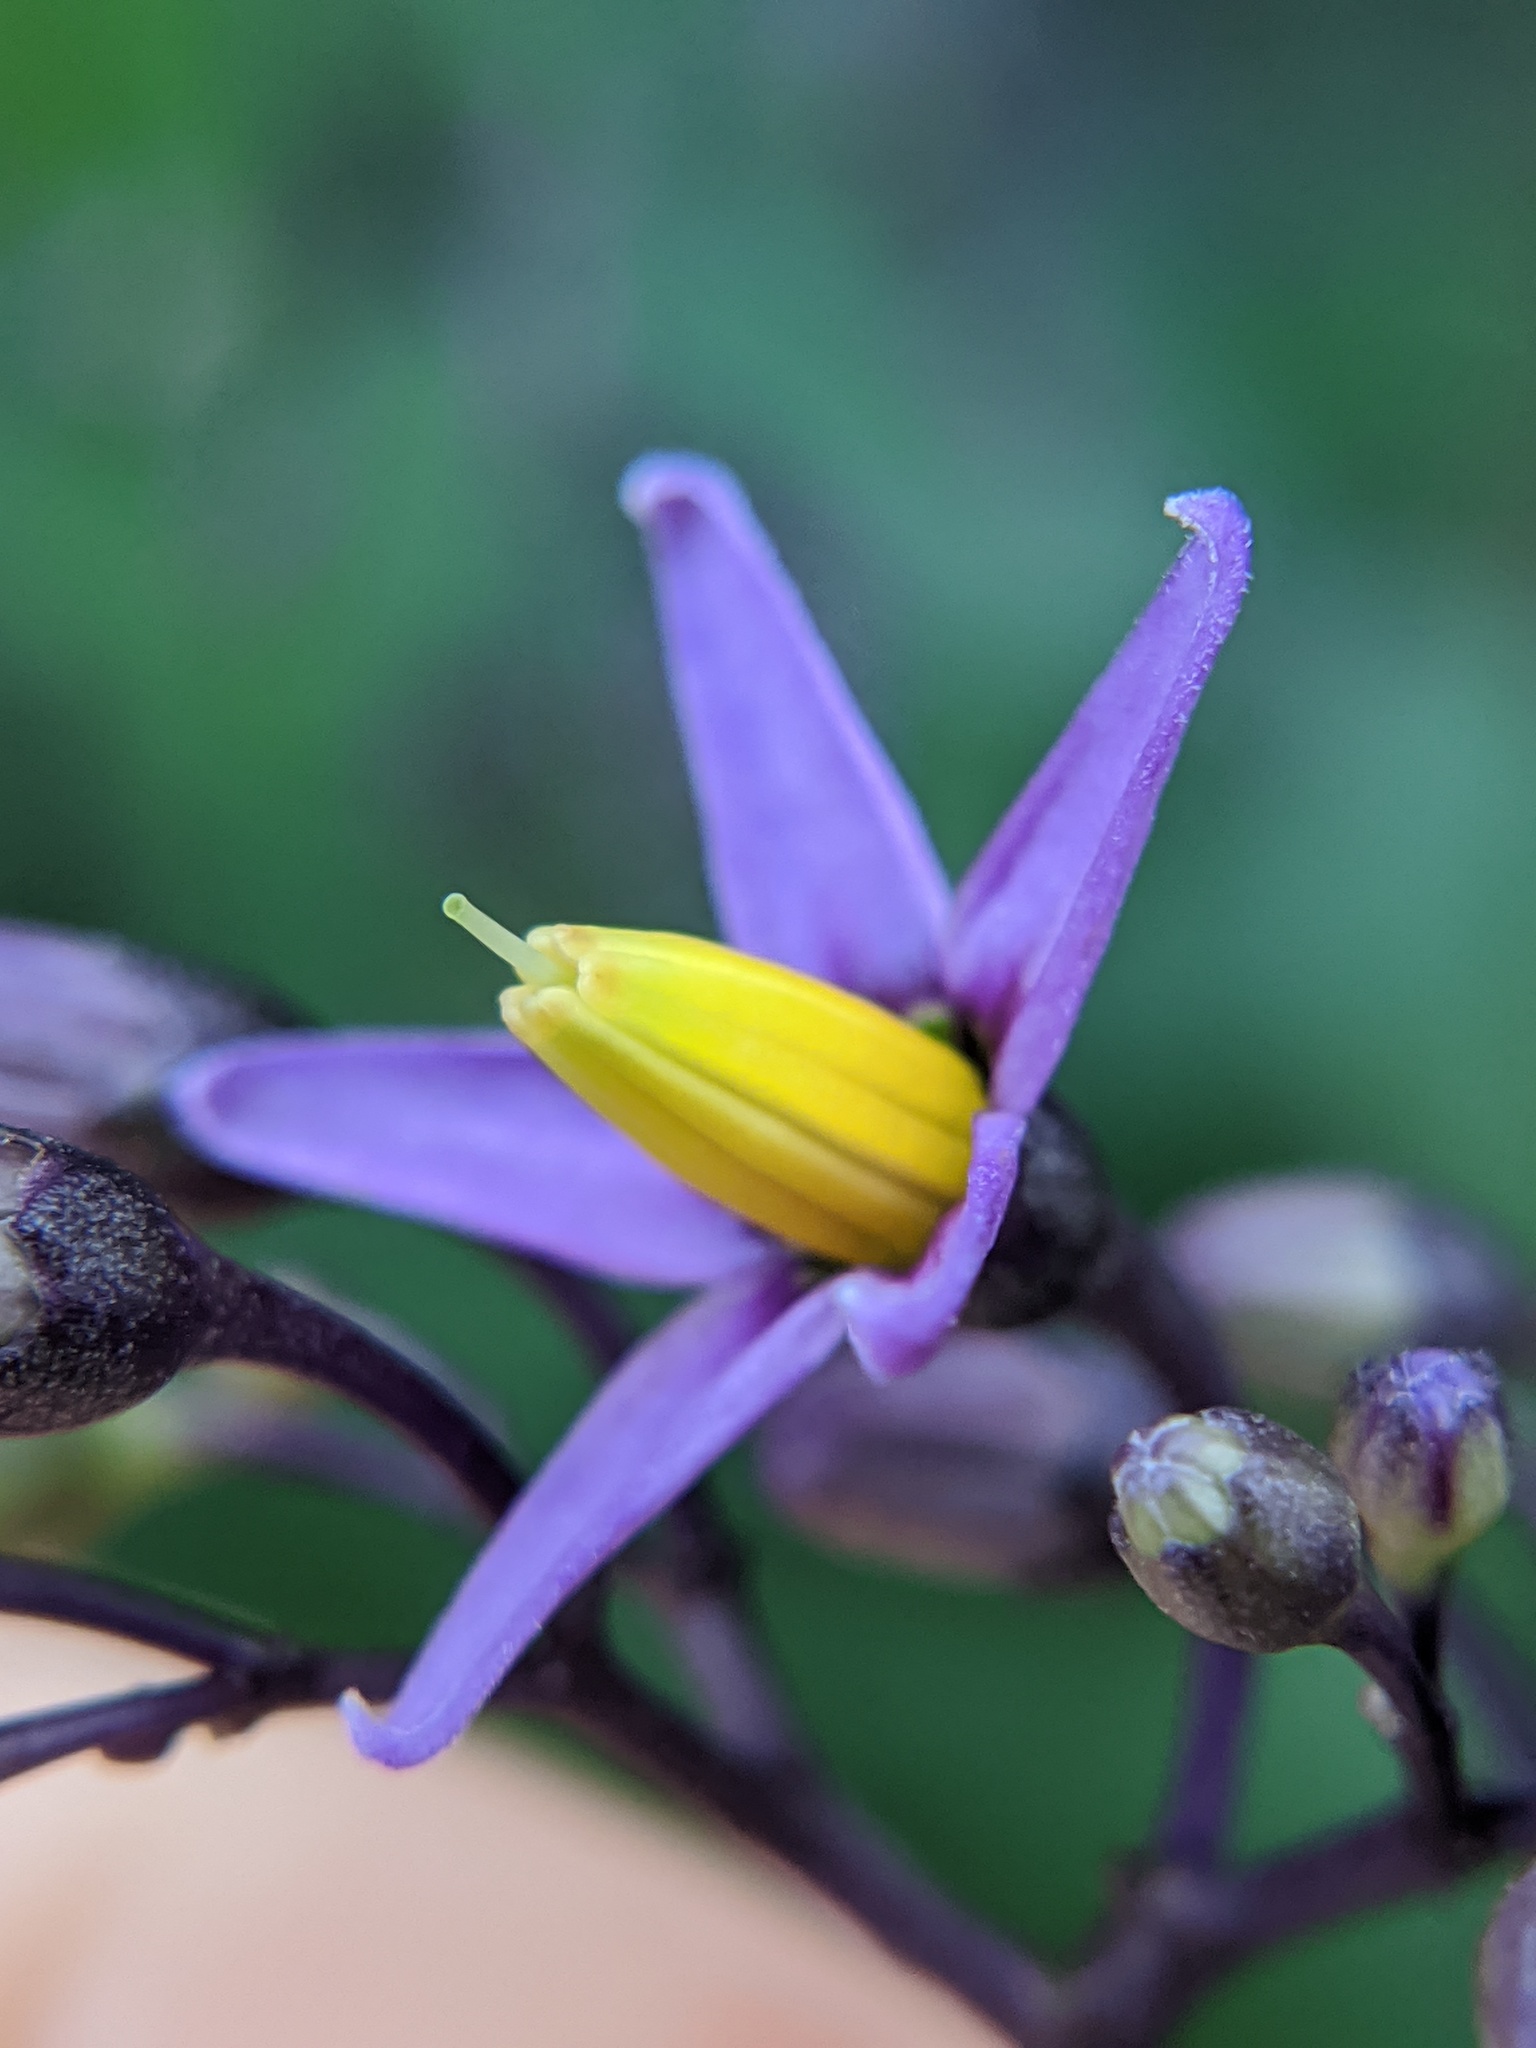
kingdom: Plantae
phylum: Tracheophyta
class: Magnoliopsida
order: Solanales
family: Solanaceae
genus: Solanum
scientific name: Solanum dulcamara
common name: Climbing nightshade
